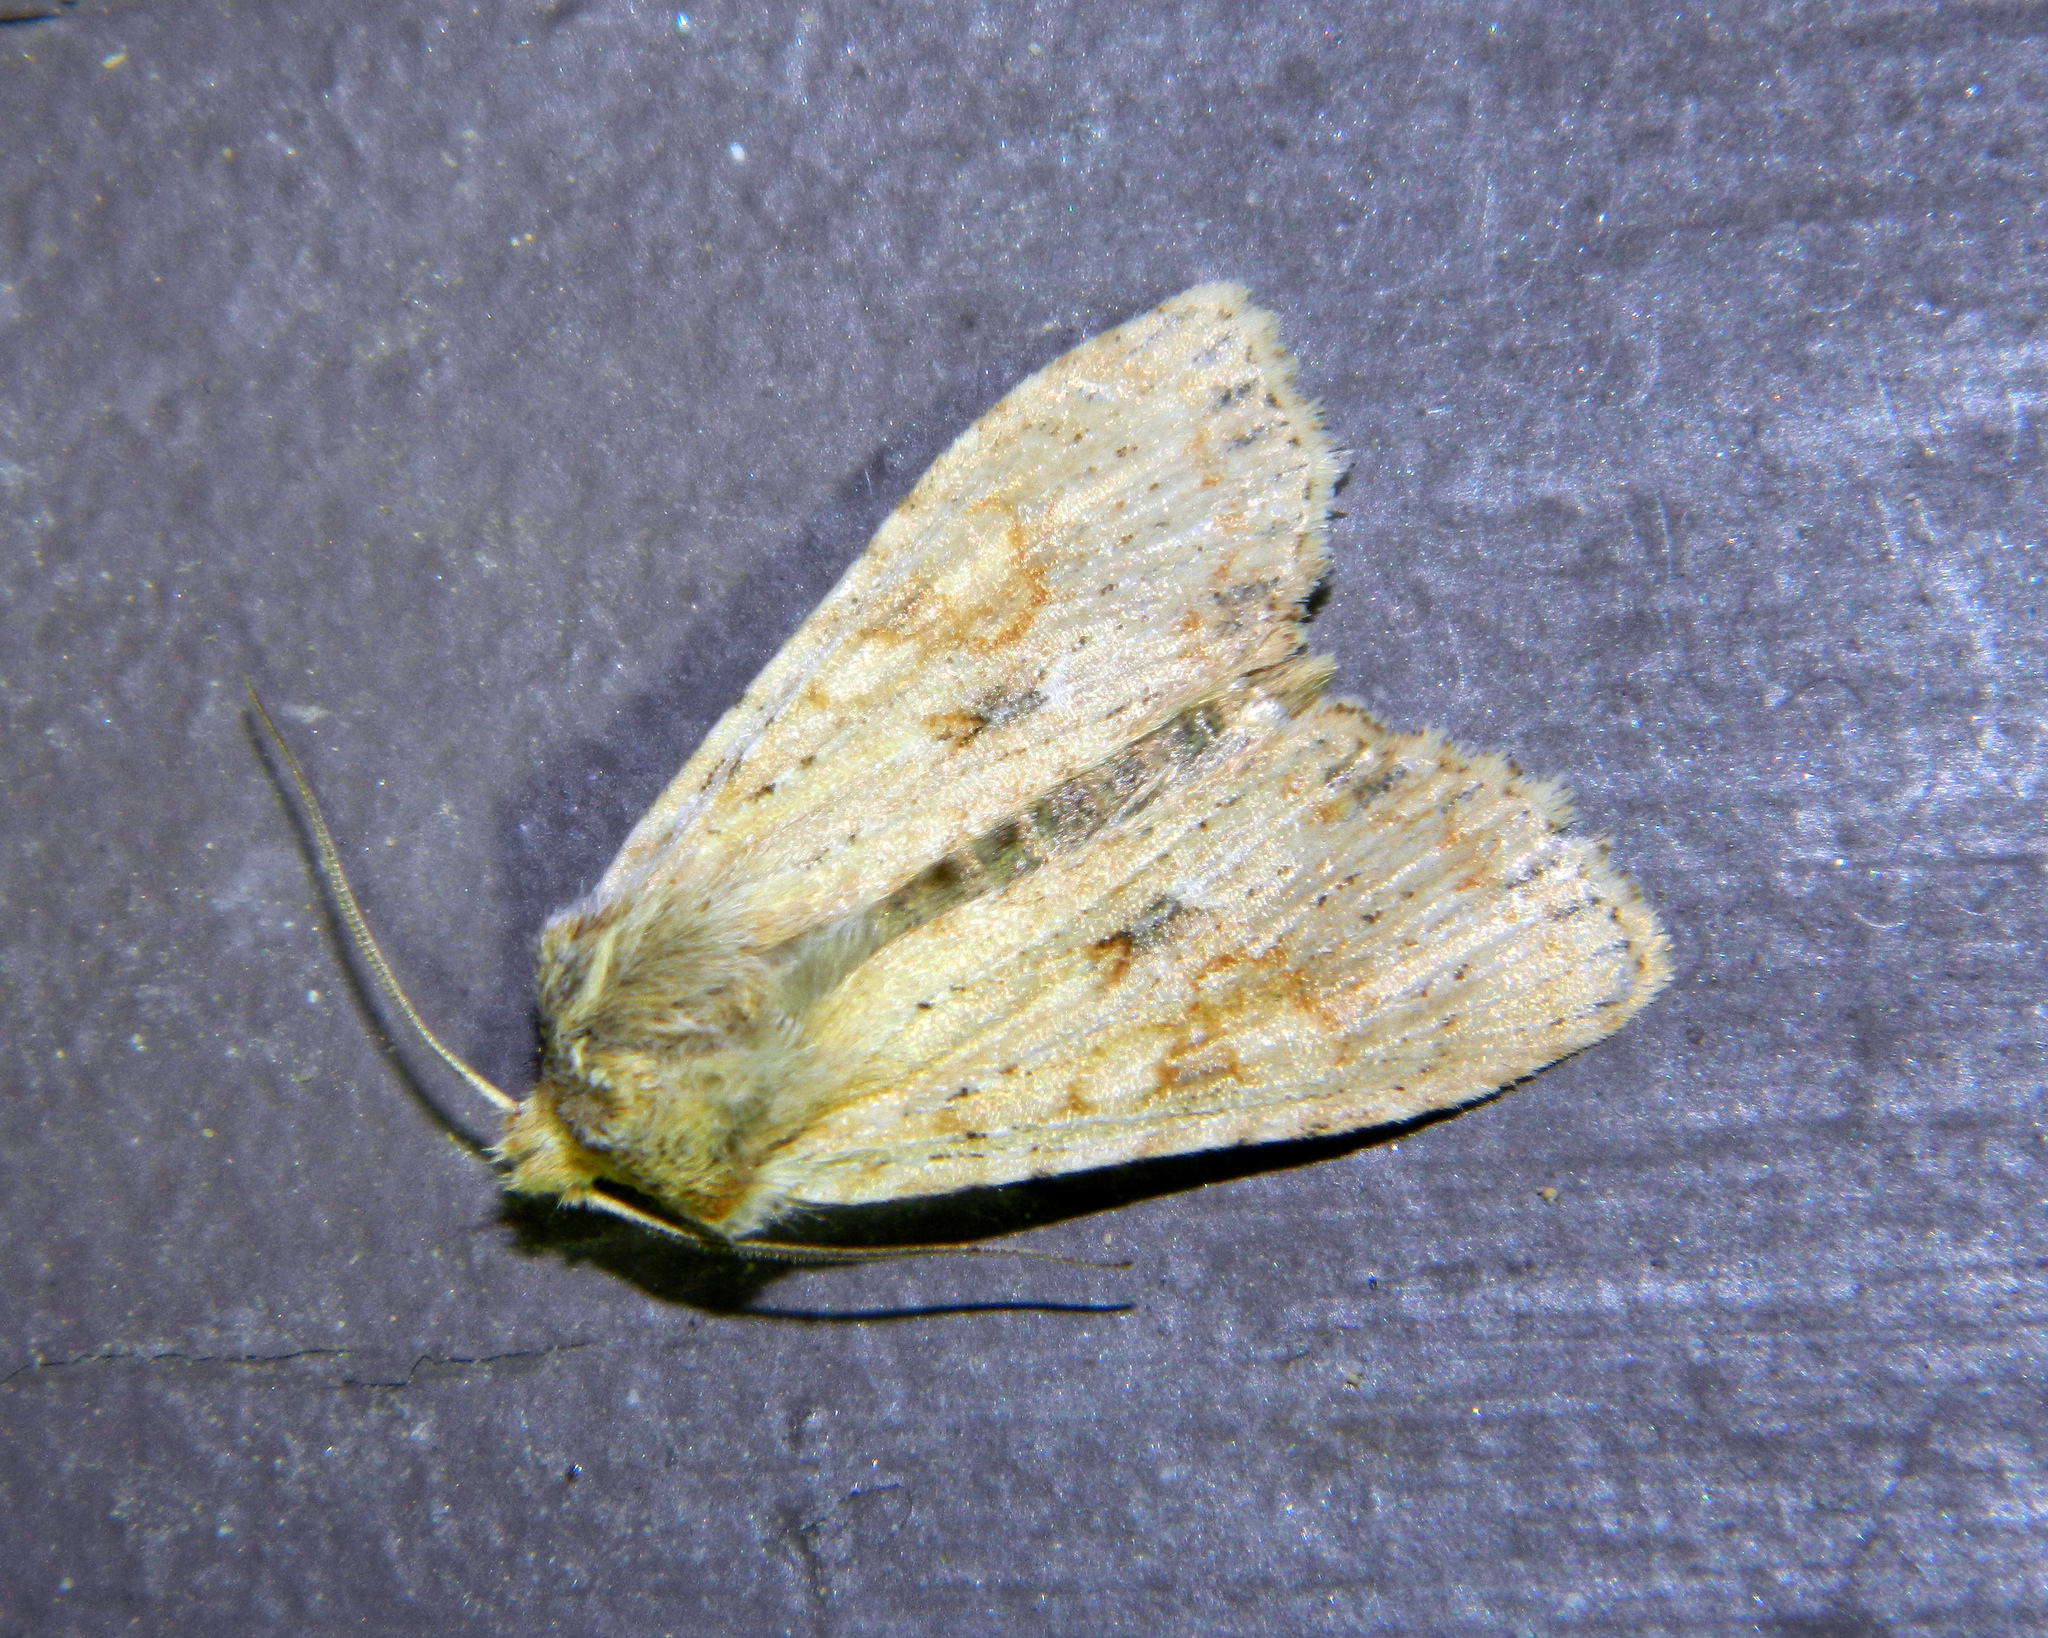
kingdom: Animalia
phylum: Arthropoda
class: Insecta
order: Lepidoptera
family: Noctuidae
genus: Lithophane
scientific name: Lithophane innominata
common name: Nameless pinion moth
